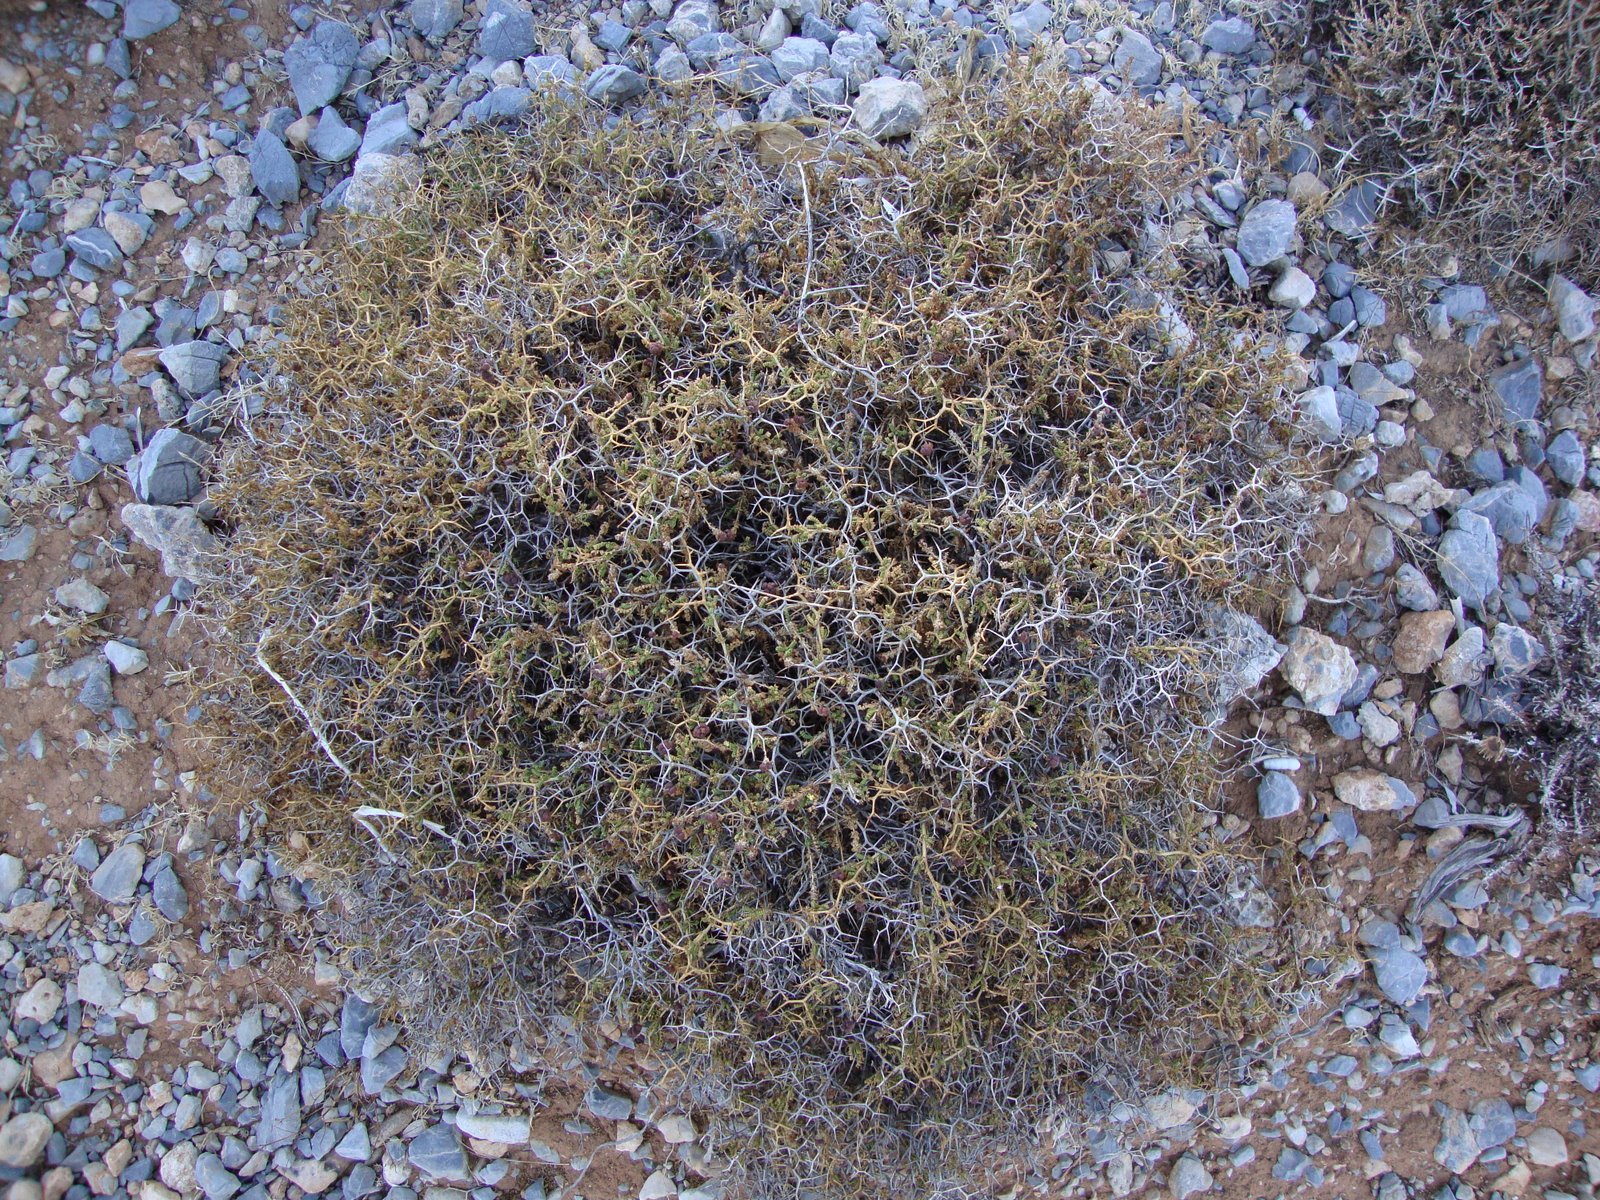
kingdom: Plantae
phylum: Tracheophyta
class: Magnoliopsida
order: Rosales
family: Rosaceae
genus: Sarcopoterium
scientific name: Sarcopoterium spinosum
